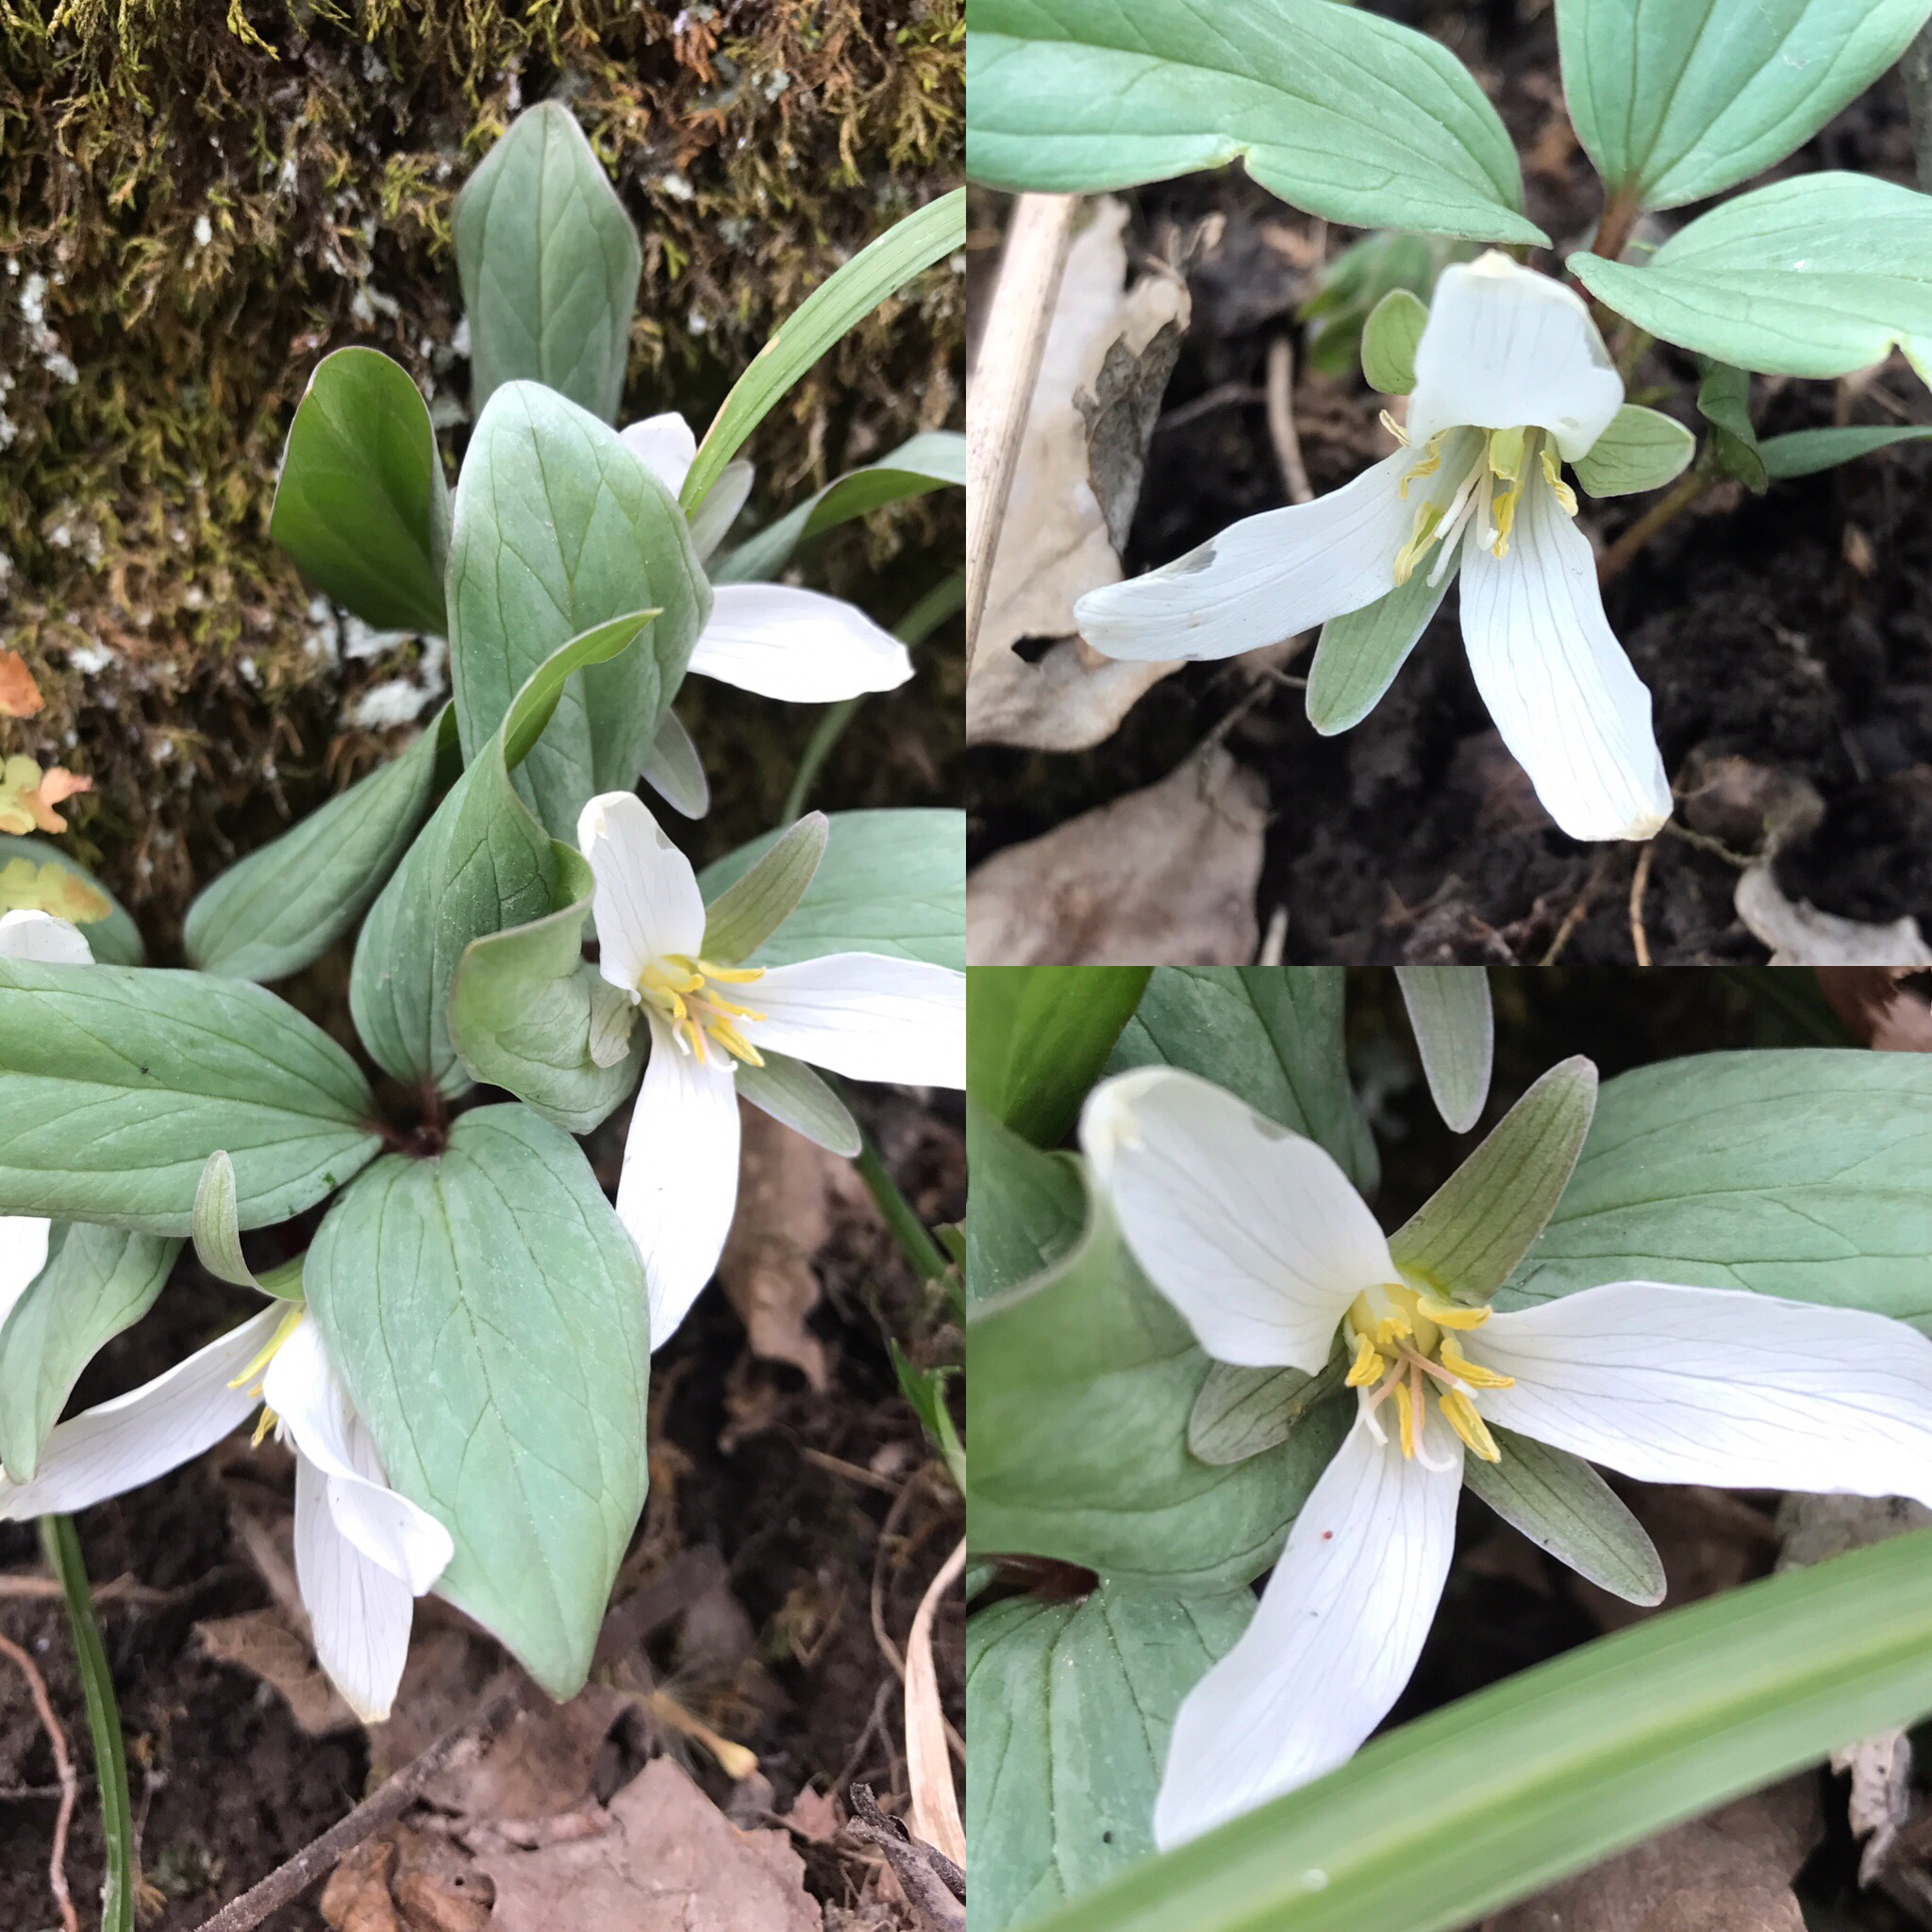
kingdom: Plantae
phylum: Tracheophyta
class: Liliopsida
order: Liliales
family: Melanthiaceae
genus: Trillium
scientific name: Trillium nivale
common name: Dwarf white trillium
